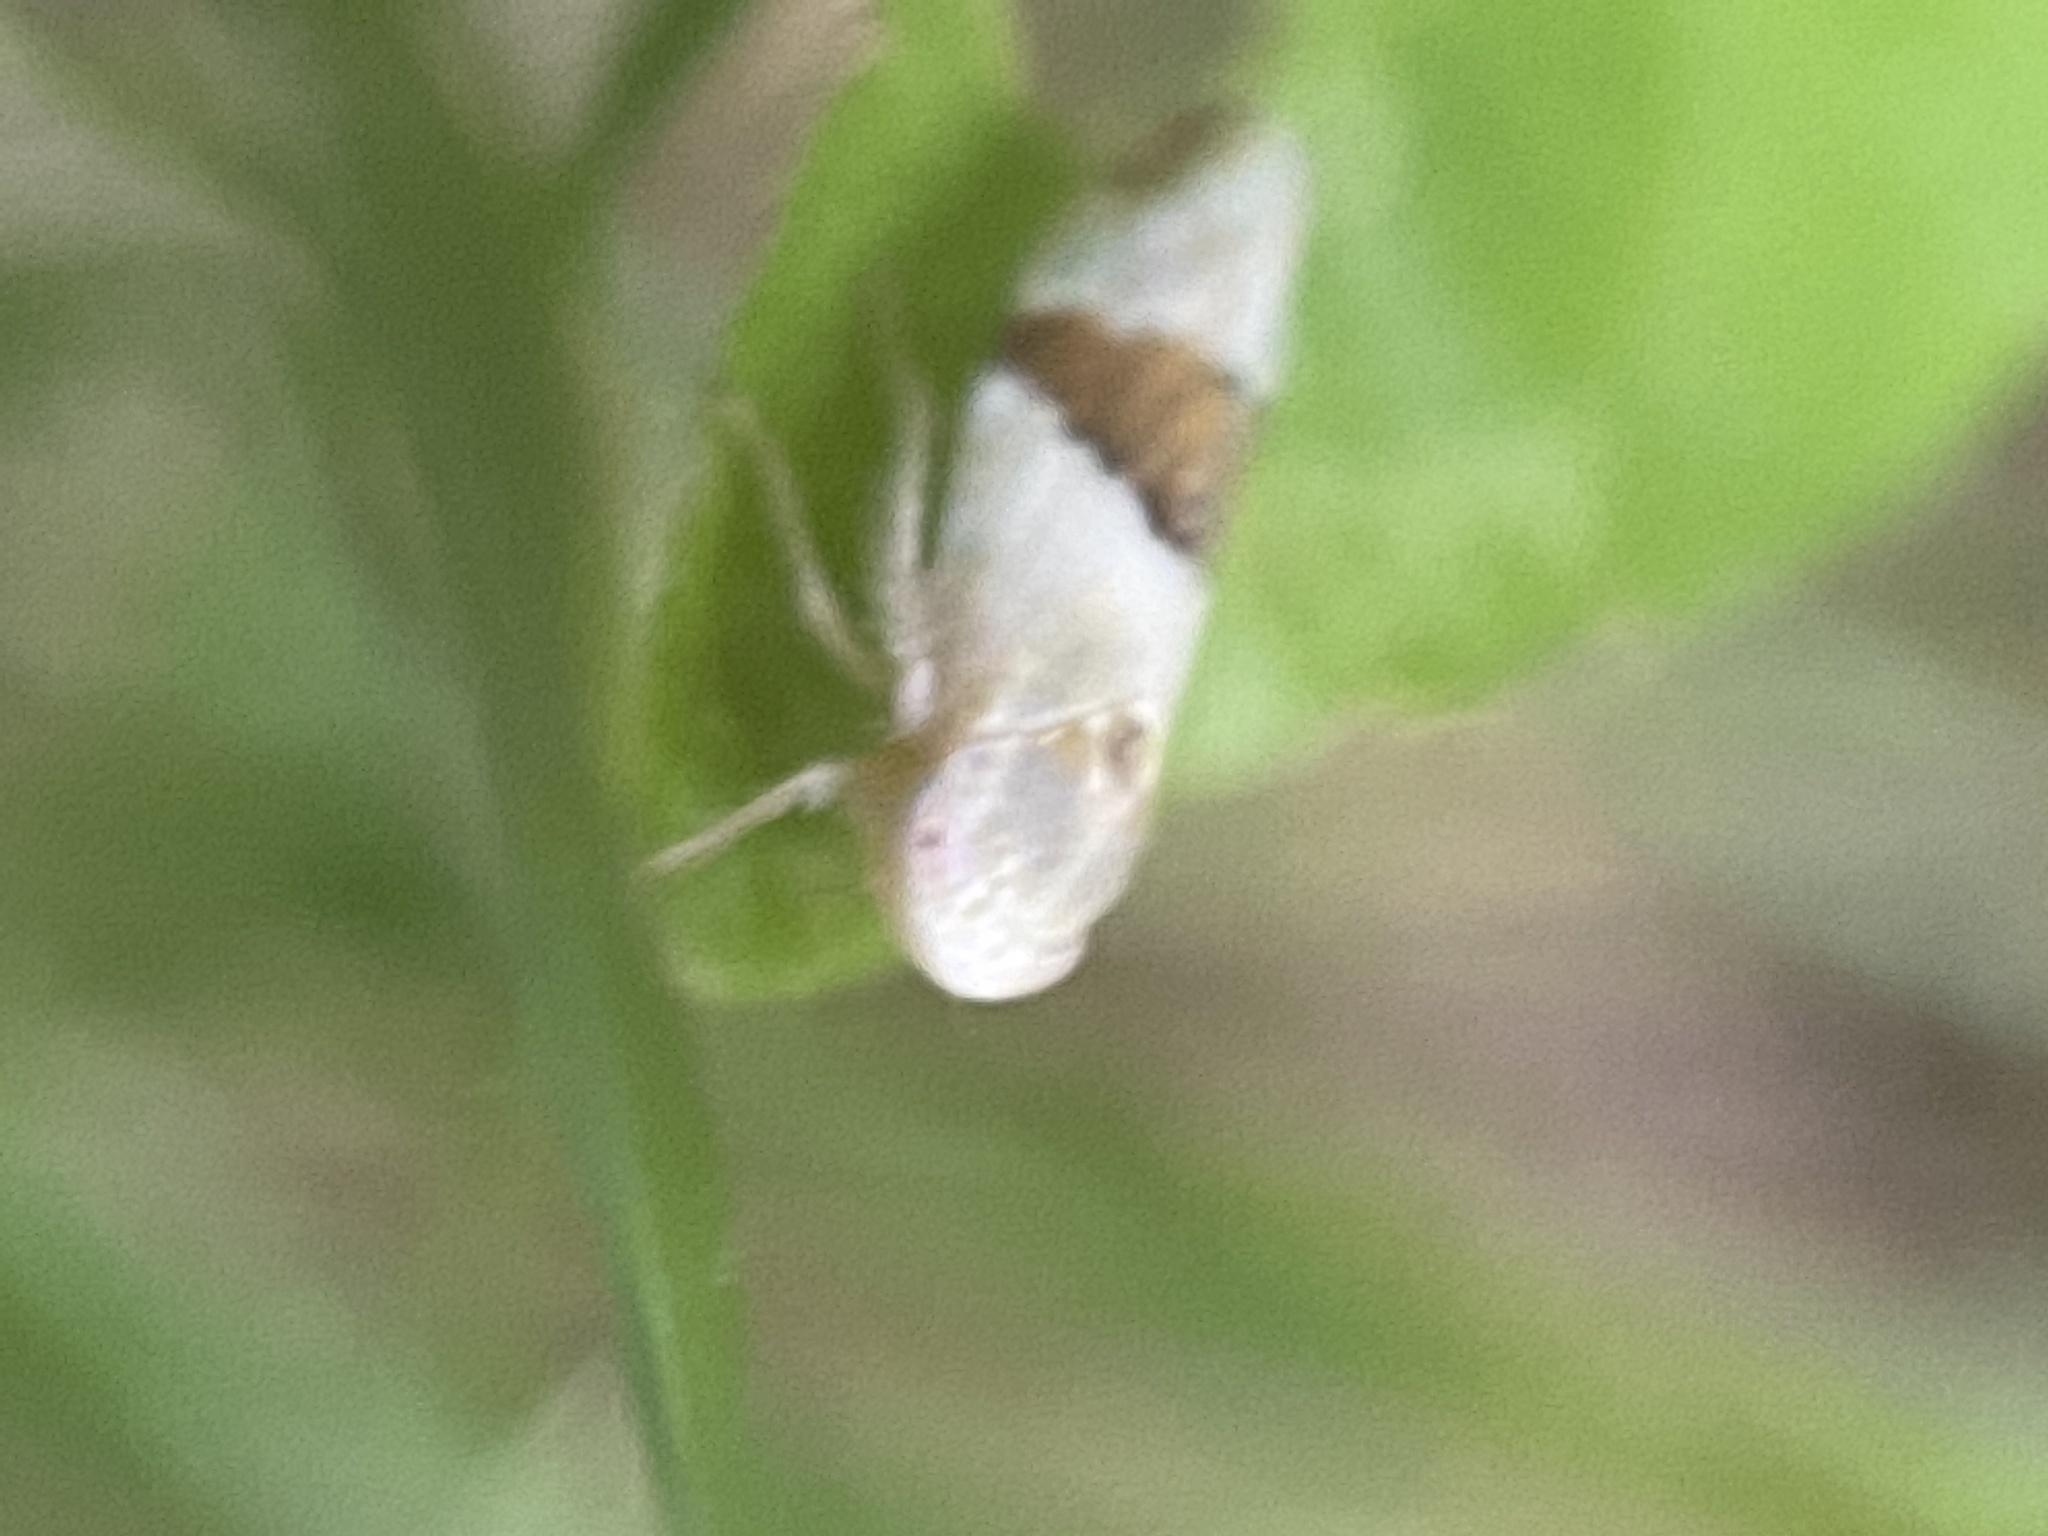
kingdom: Animalia
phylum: Arthropoda
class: Insecta
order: Hemiptera
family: Cicadellidae
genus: Norvellina
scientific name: Norvellina seminuda
